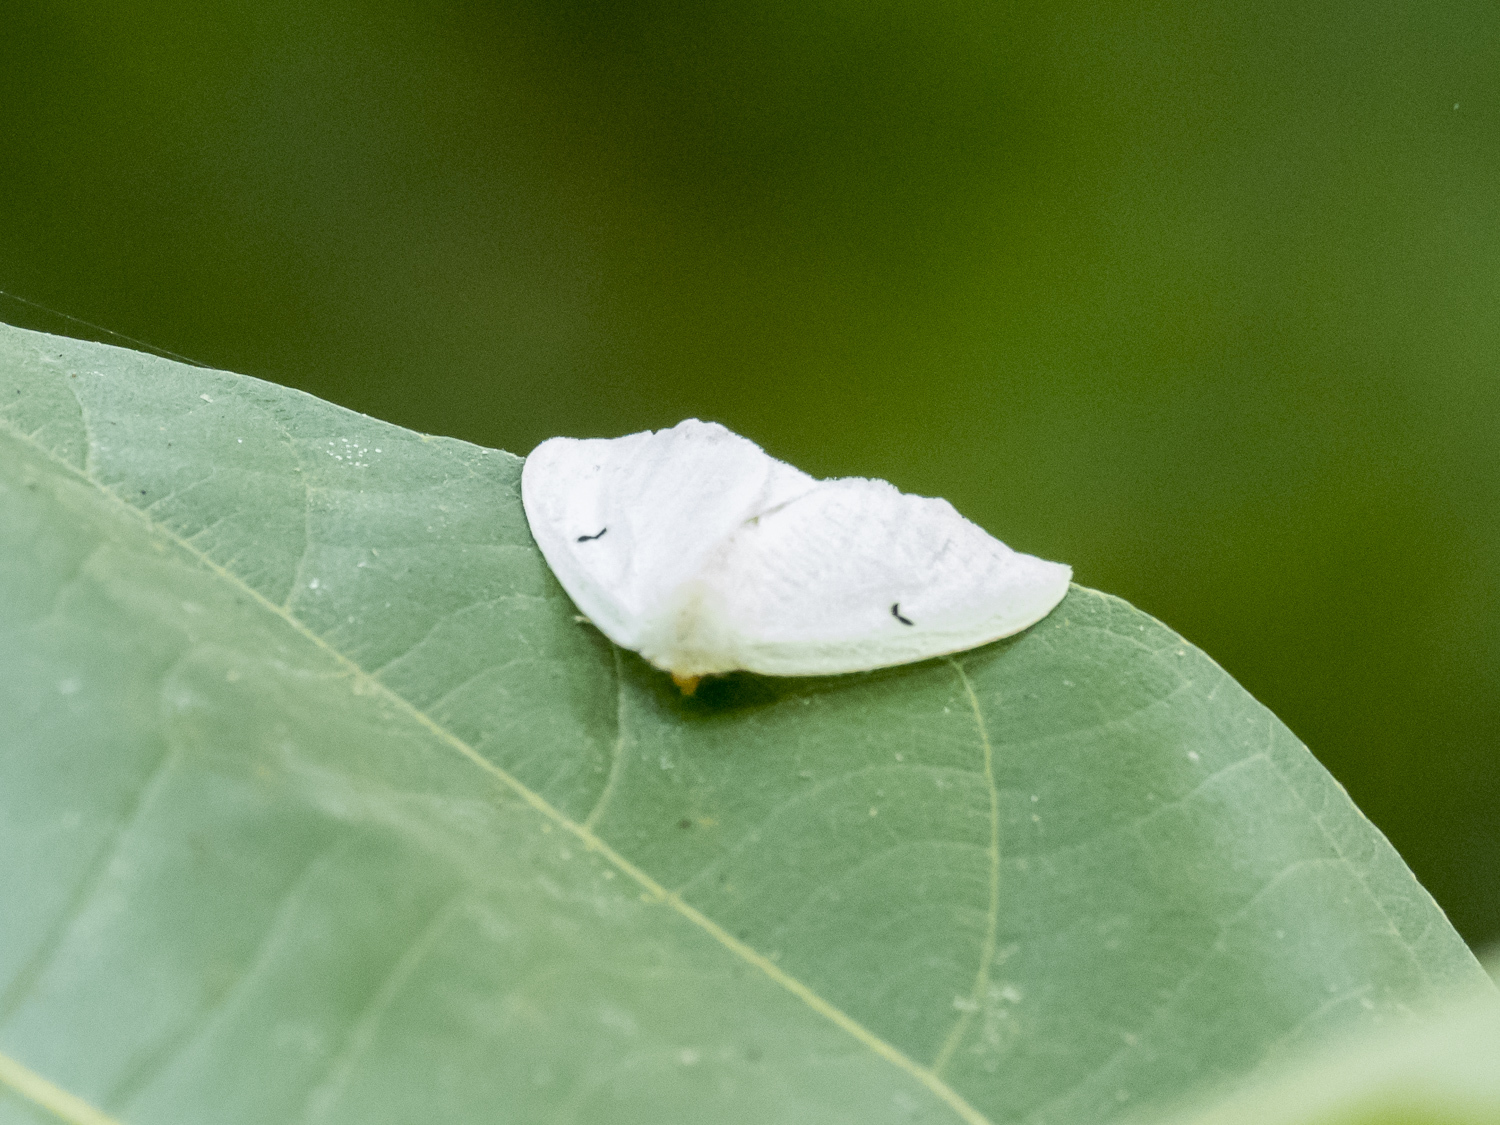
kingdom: Animalia
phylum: Arthropoda
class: Insecta
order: Lepidoptera
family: Erebidae
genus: Arctornis
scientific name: Arctornis comma
